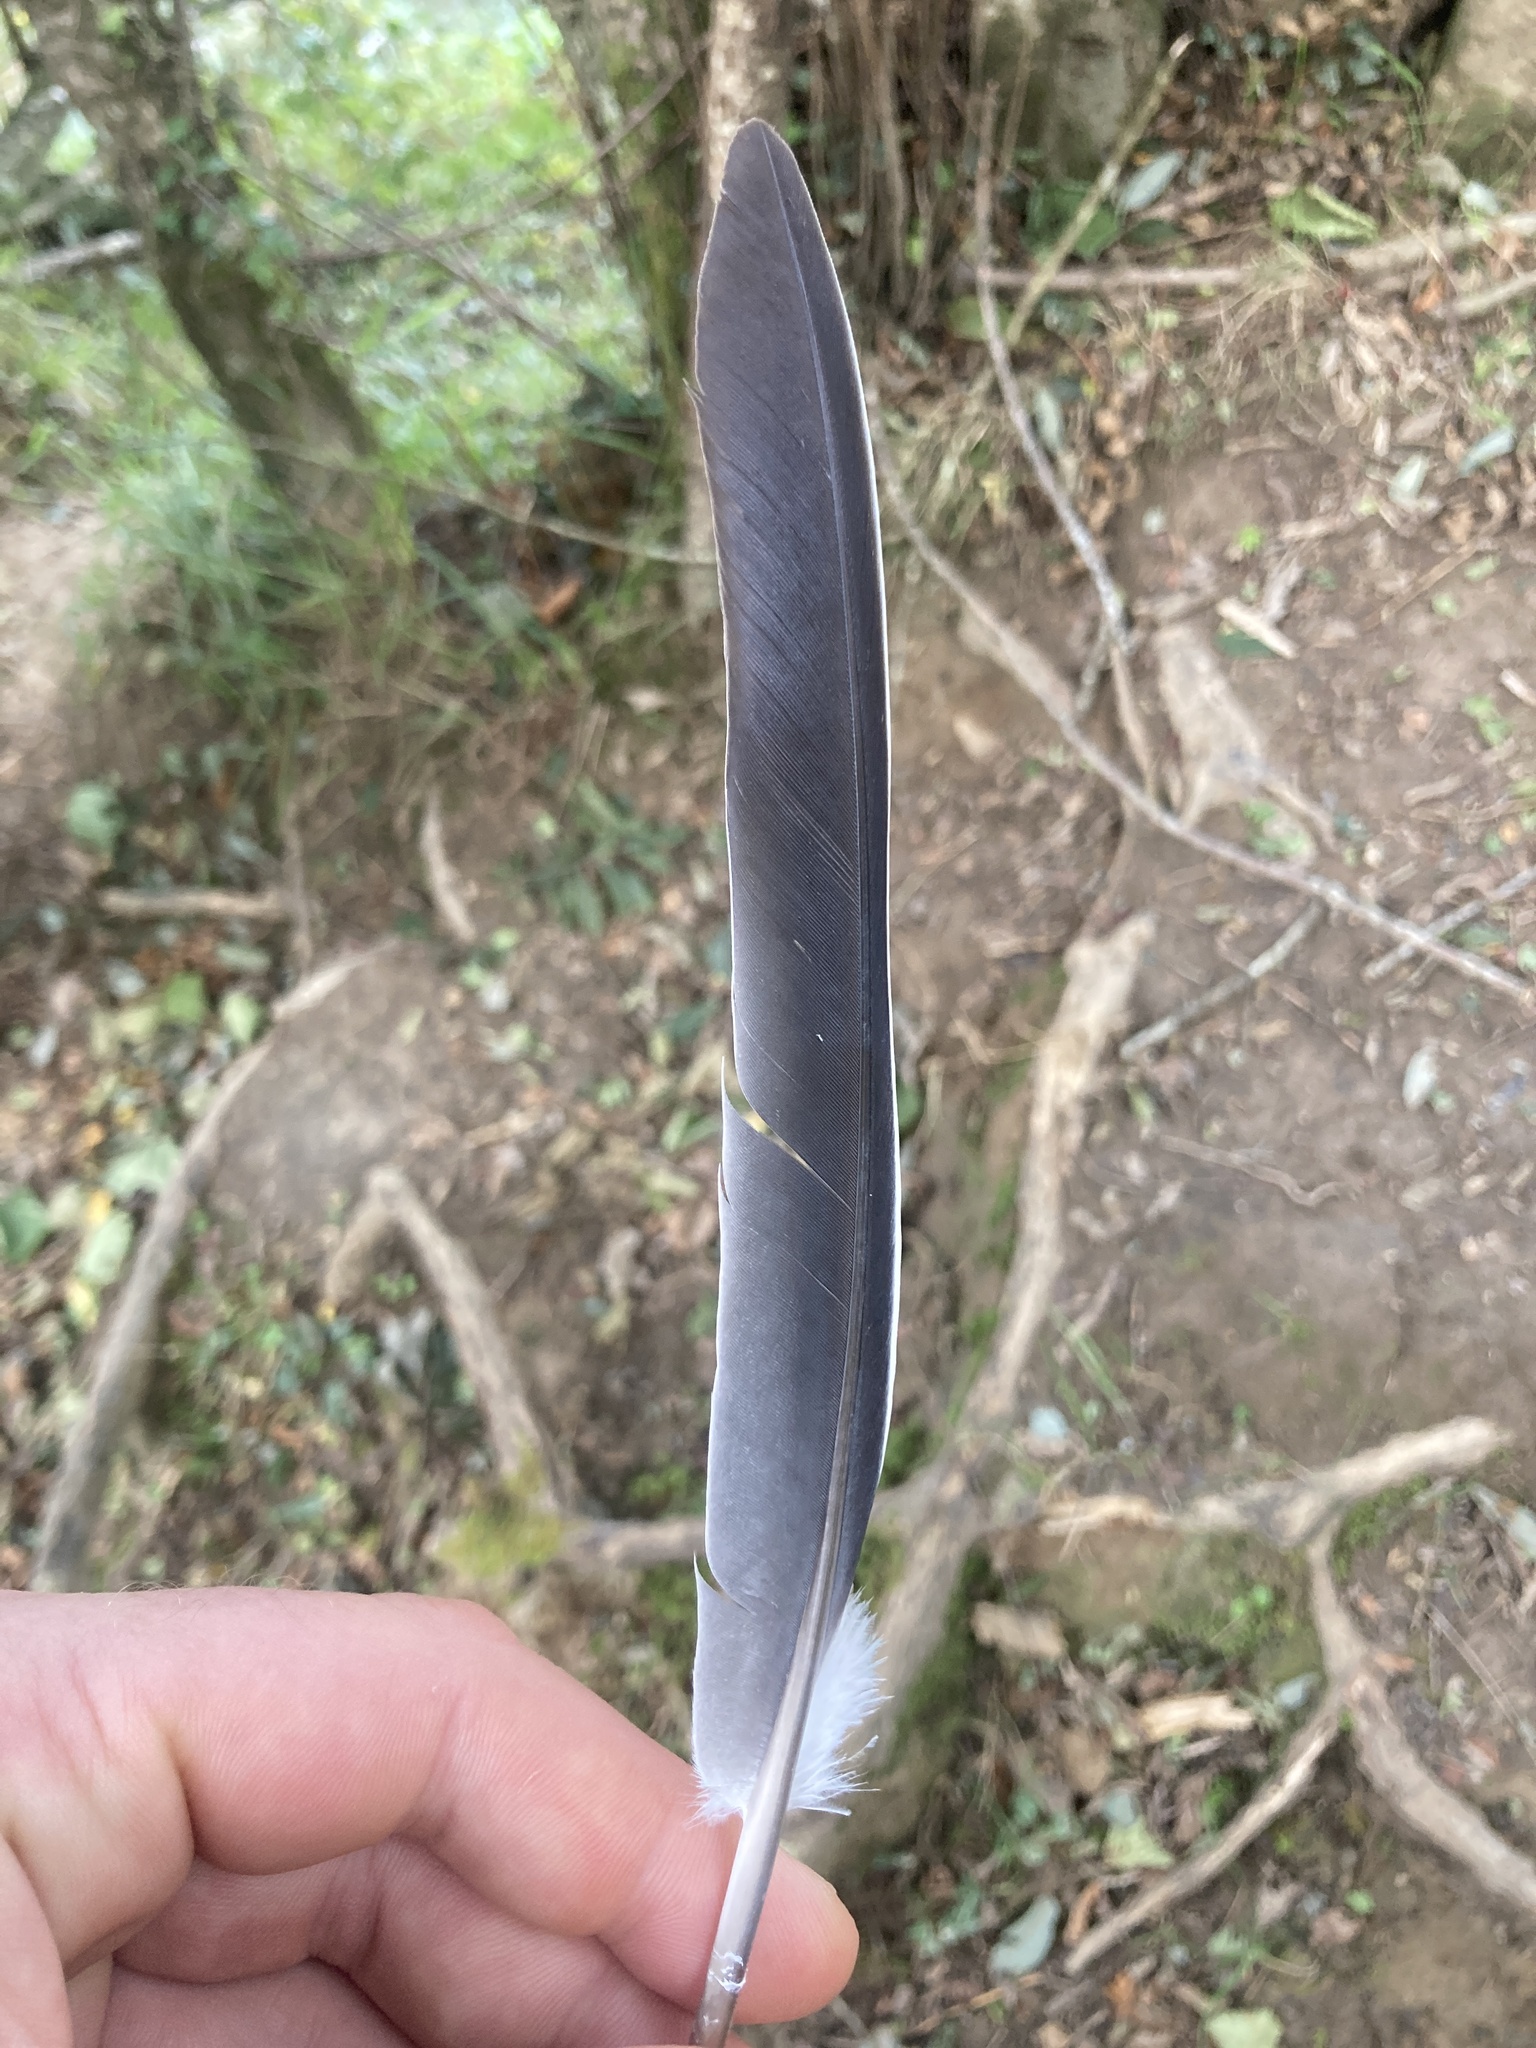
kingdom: Animalia
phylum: Chordata
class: Aves
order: Columbiformes
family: Columbidae
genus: Columba
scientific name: Columba palumbus
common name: Common wood pigeon
